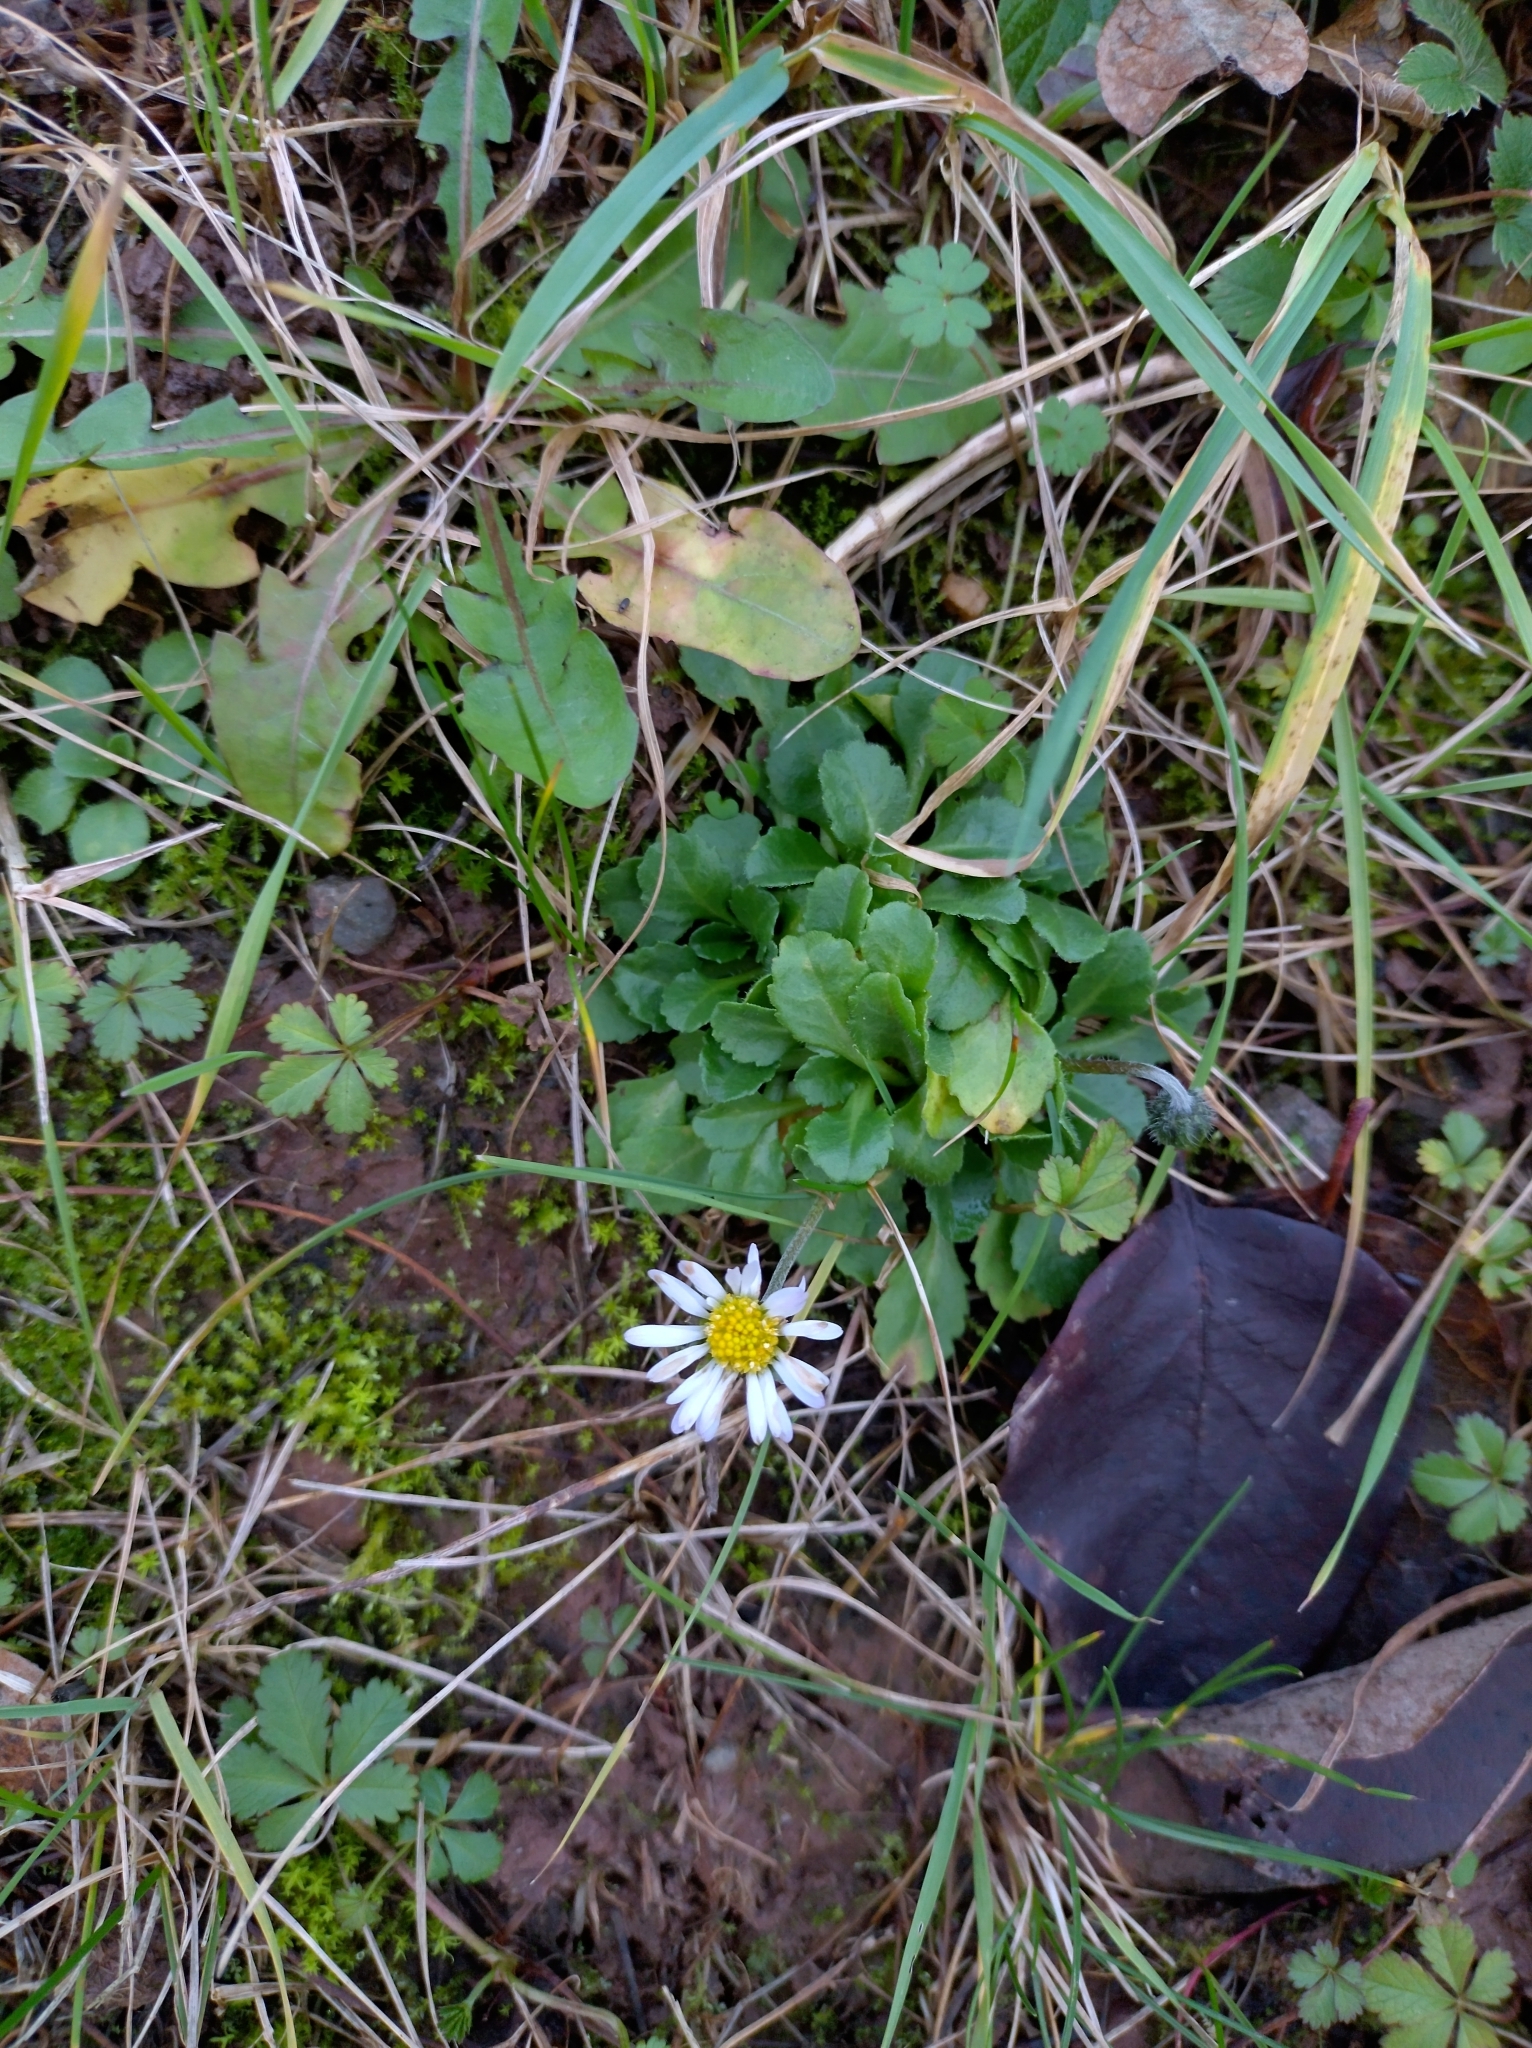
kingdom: Plantae
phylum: Tracheophyta
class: Magnoliopsida
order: Asterales
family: Asteraceae
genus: Bellis
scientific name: Bellis perennis
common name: Lawndaisy
